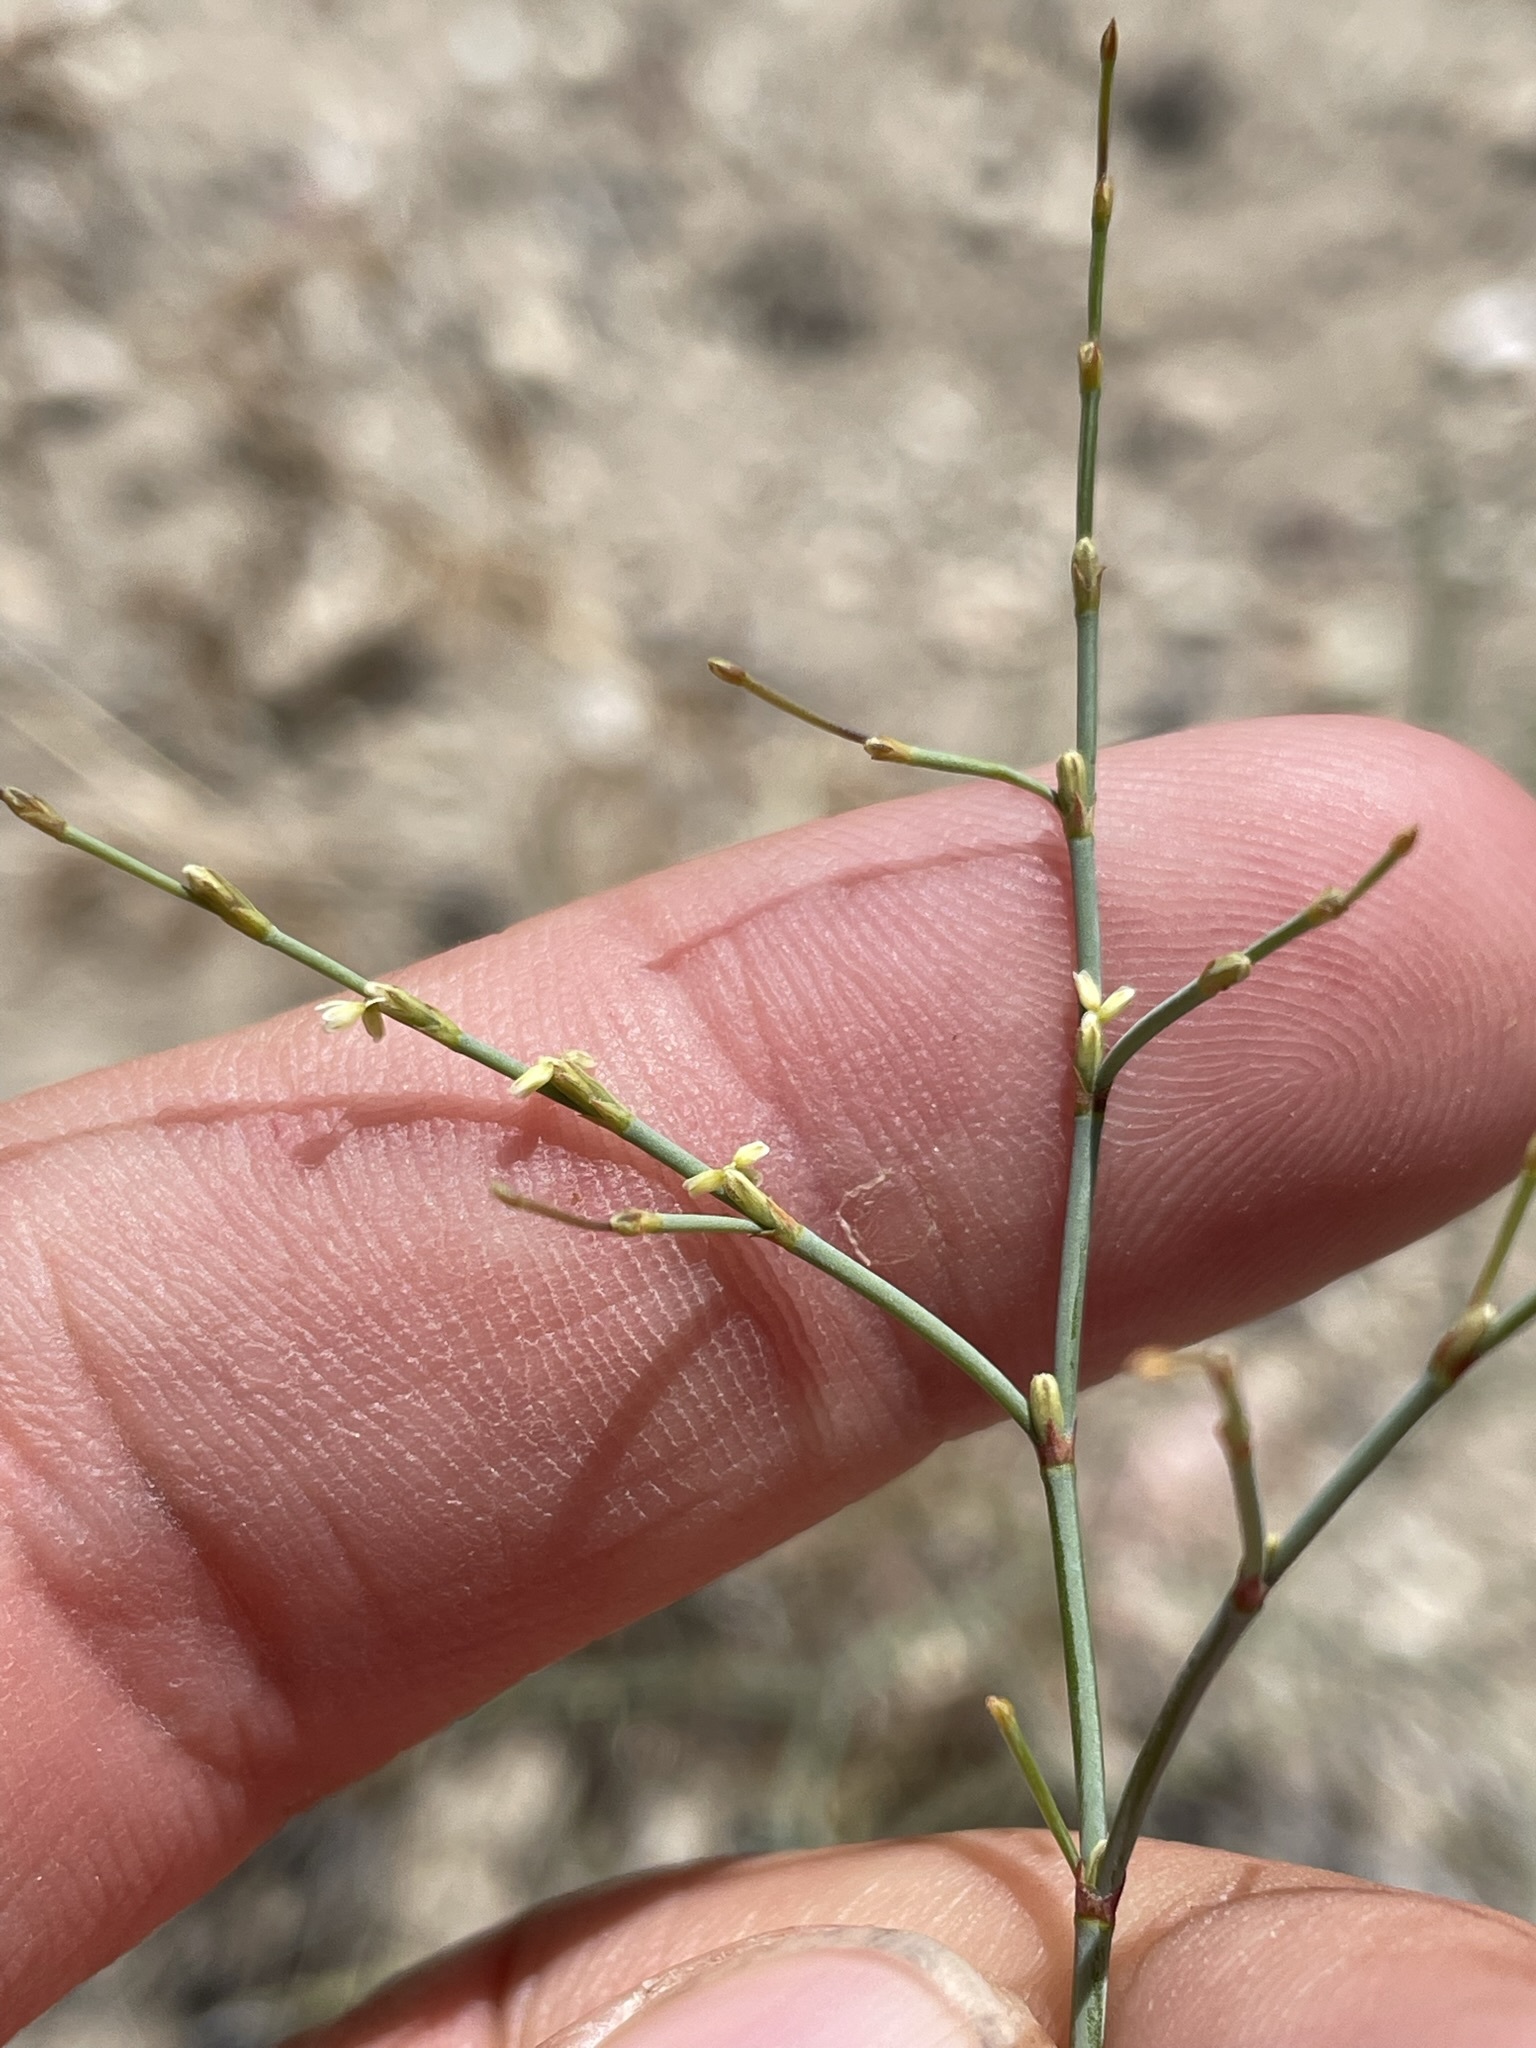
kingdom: Plantae
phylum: Tracheophyta
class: Magnoliopsida
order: Caryophyllales
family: Polygonaceae
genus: Eriogonum
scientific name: Eriogonum brachyanthum
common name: Short-flower wild buckwheat
